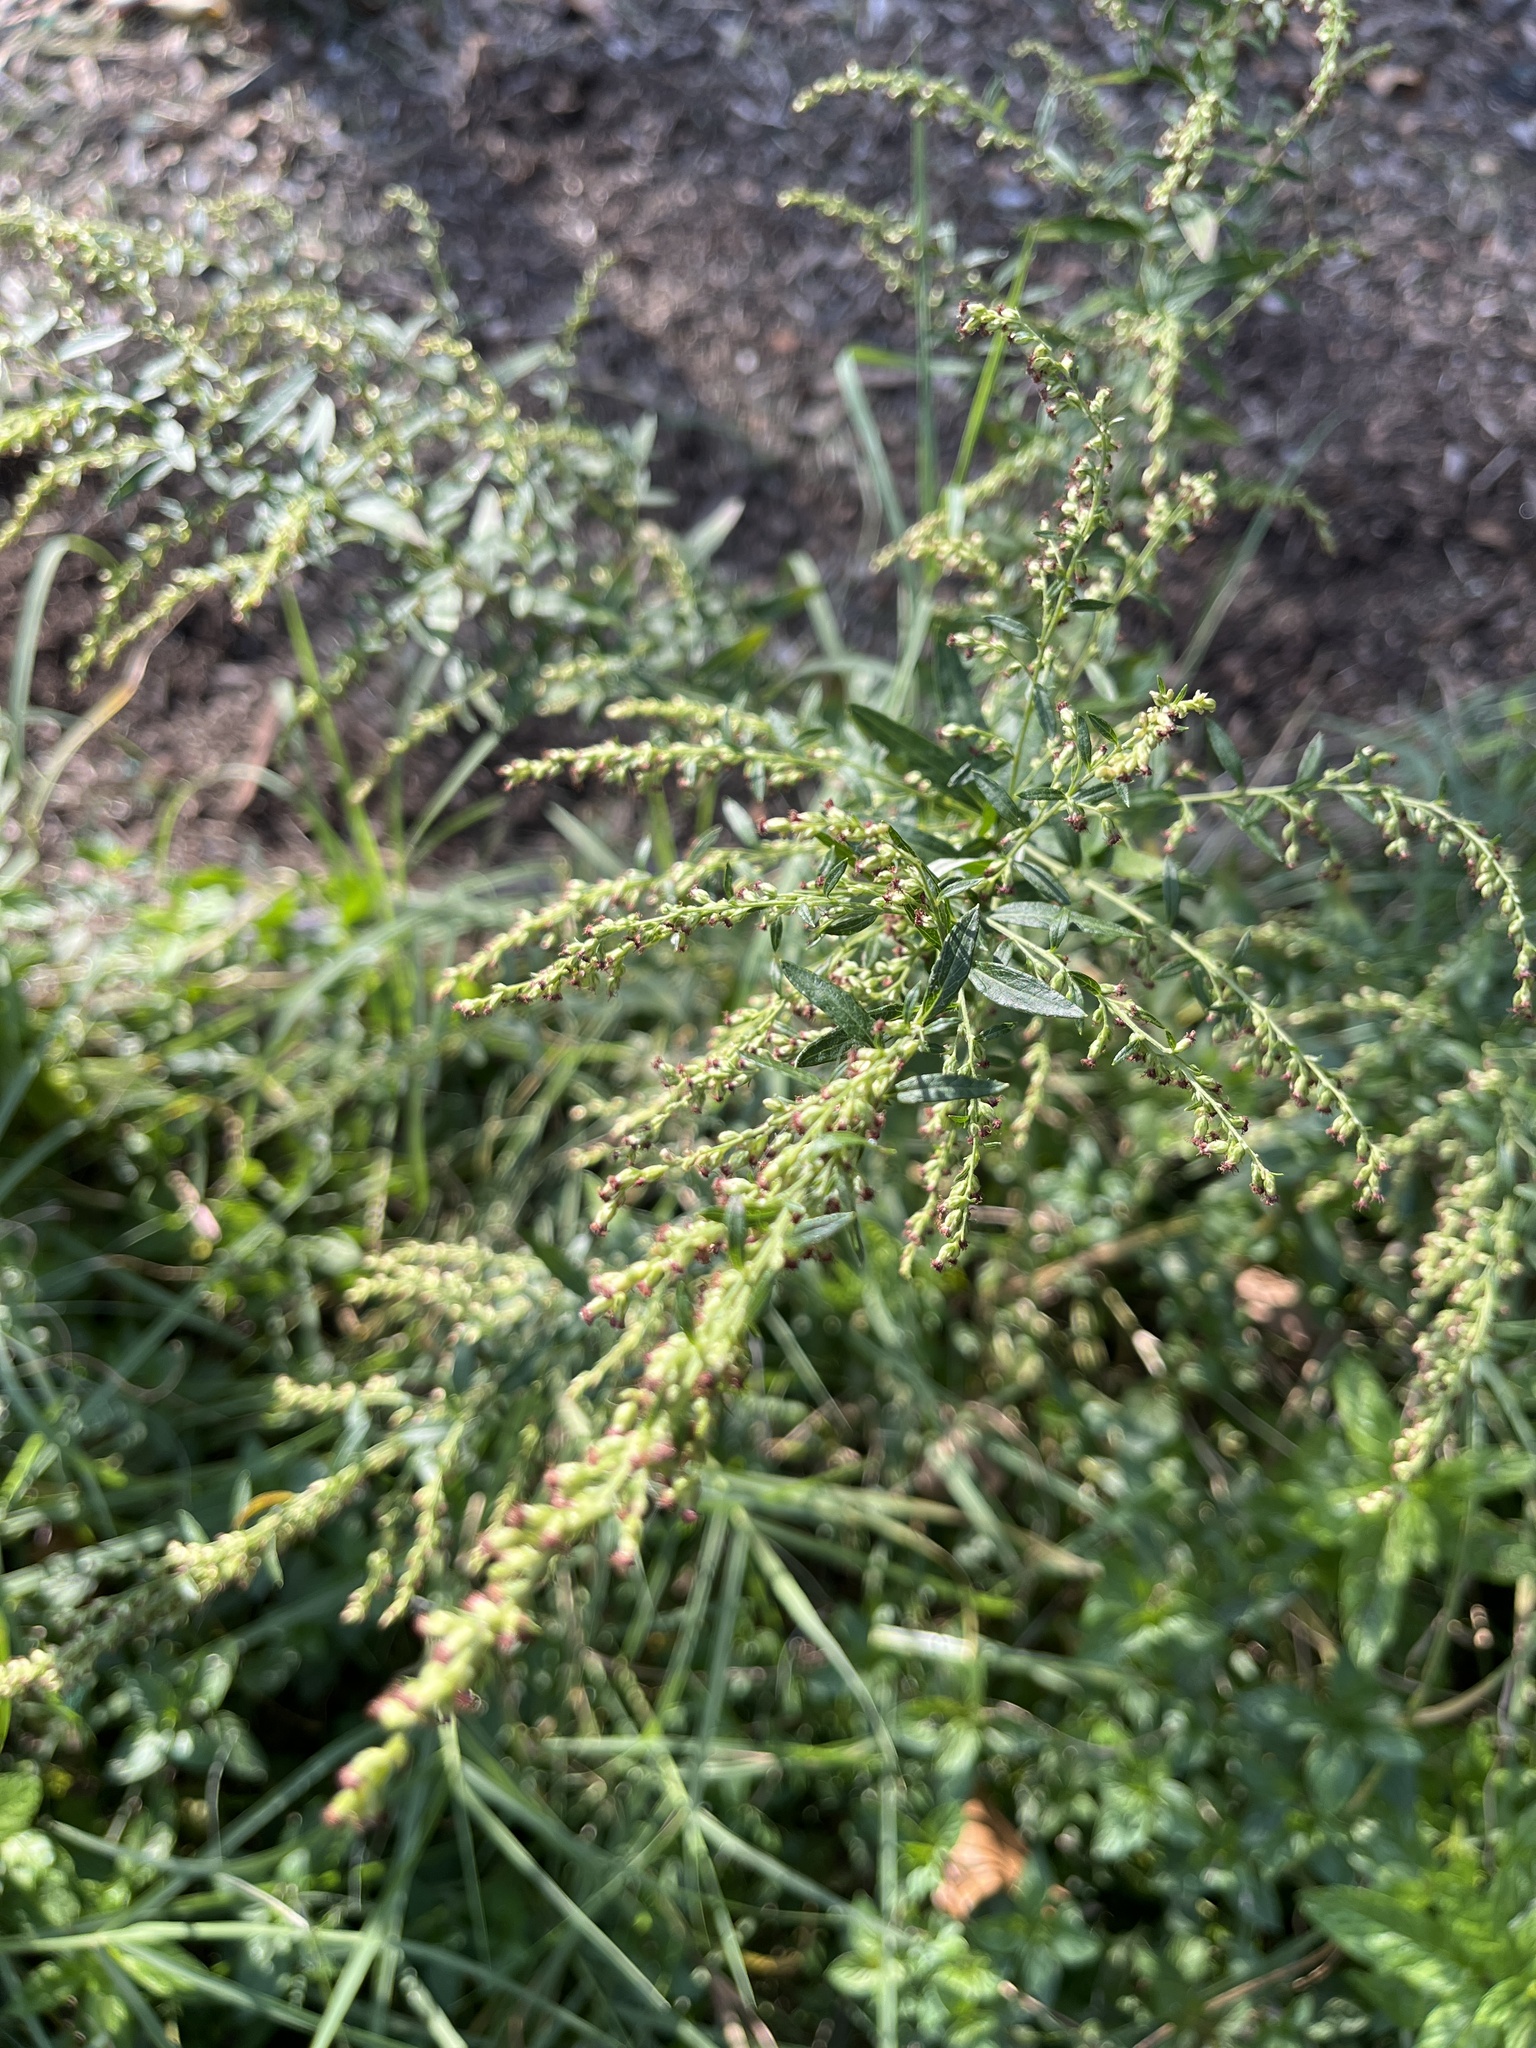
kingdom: Plantae
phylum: Tracheophyta
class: Magnoliopsida
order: Asterales
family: Asteraceae
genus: Artemisia
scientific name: Artemisia vulgaris
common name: Mugwort
